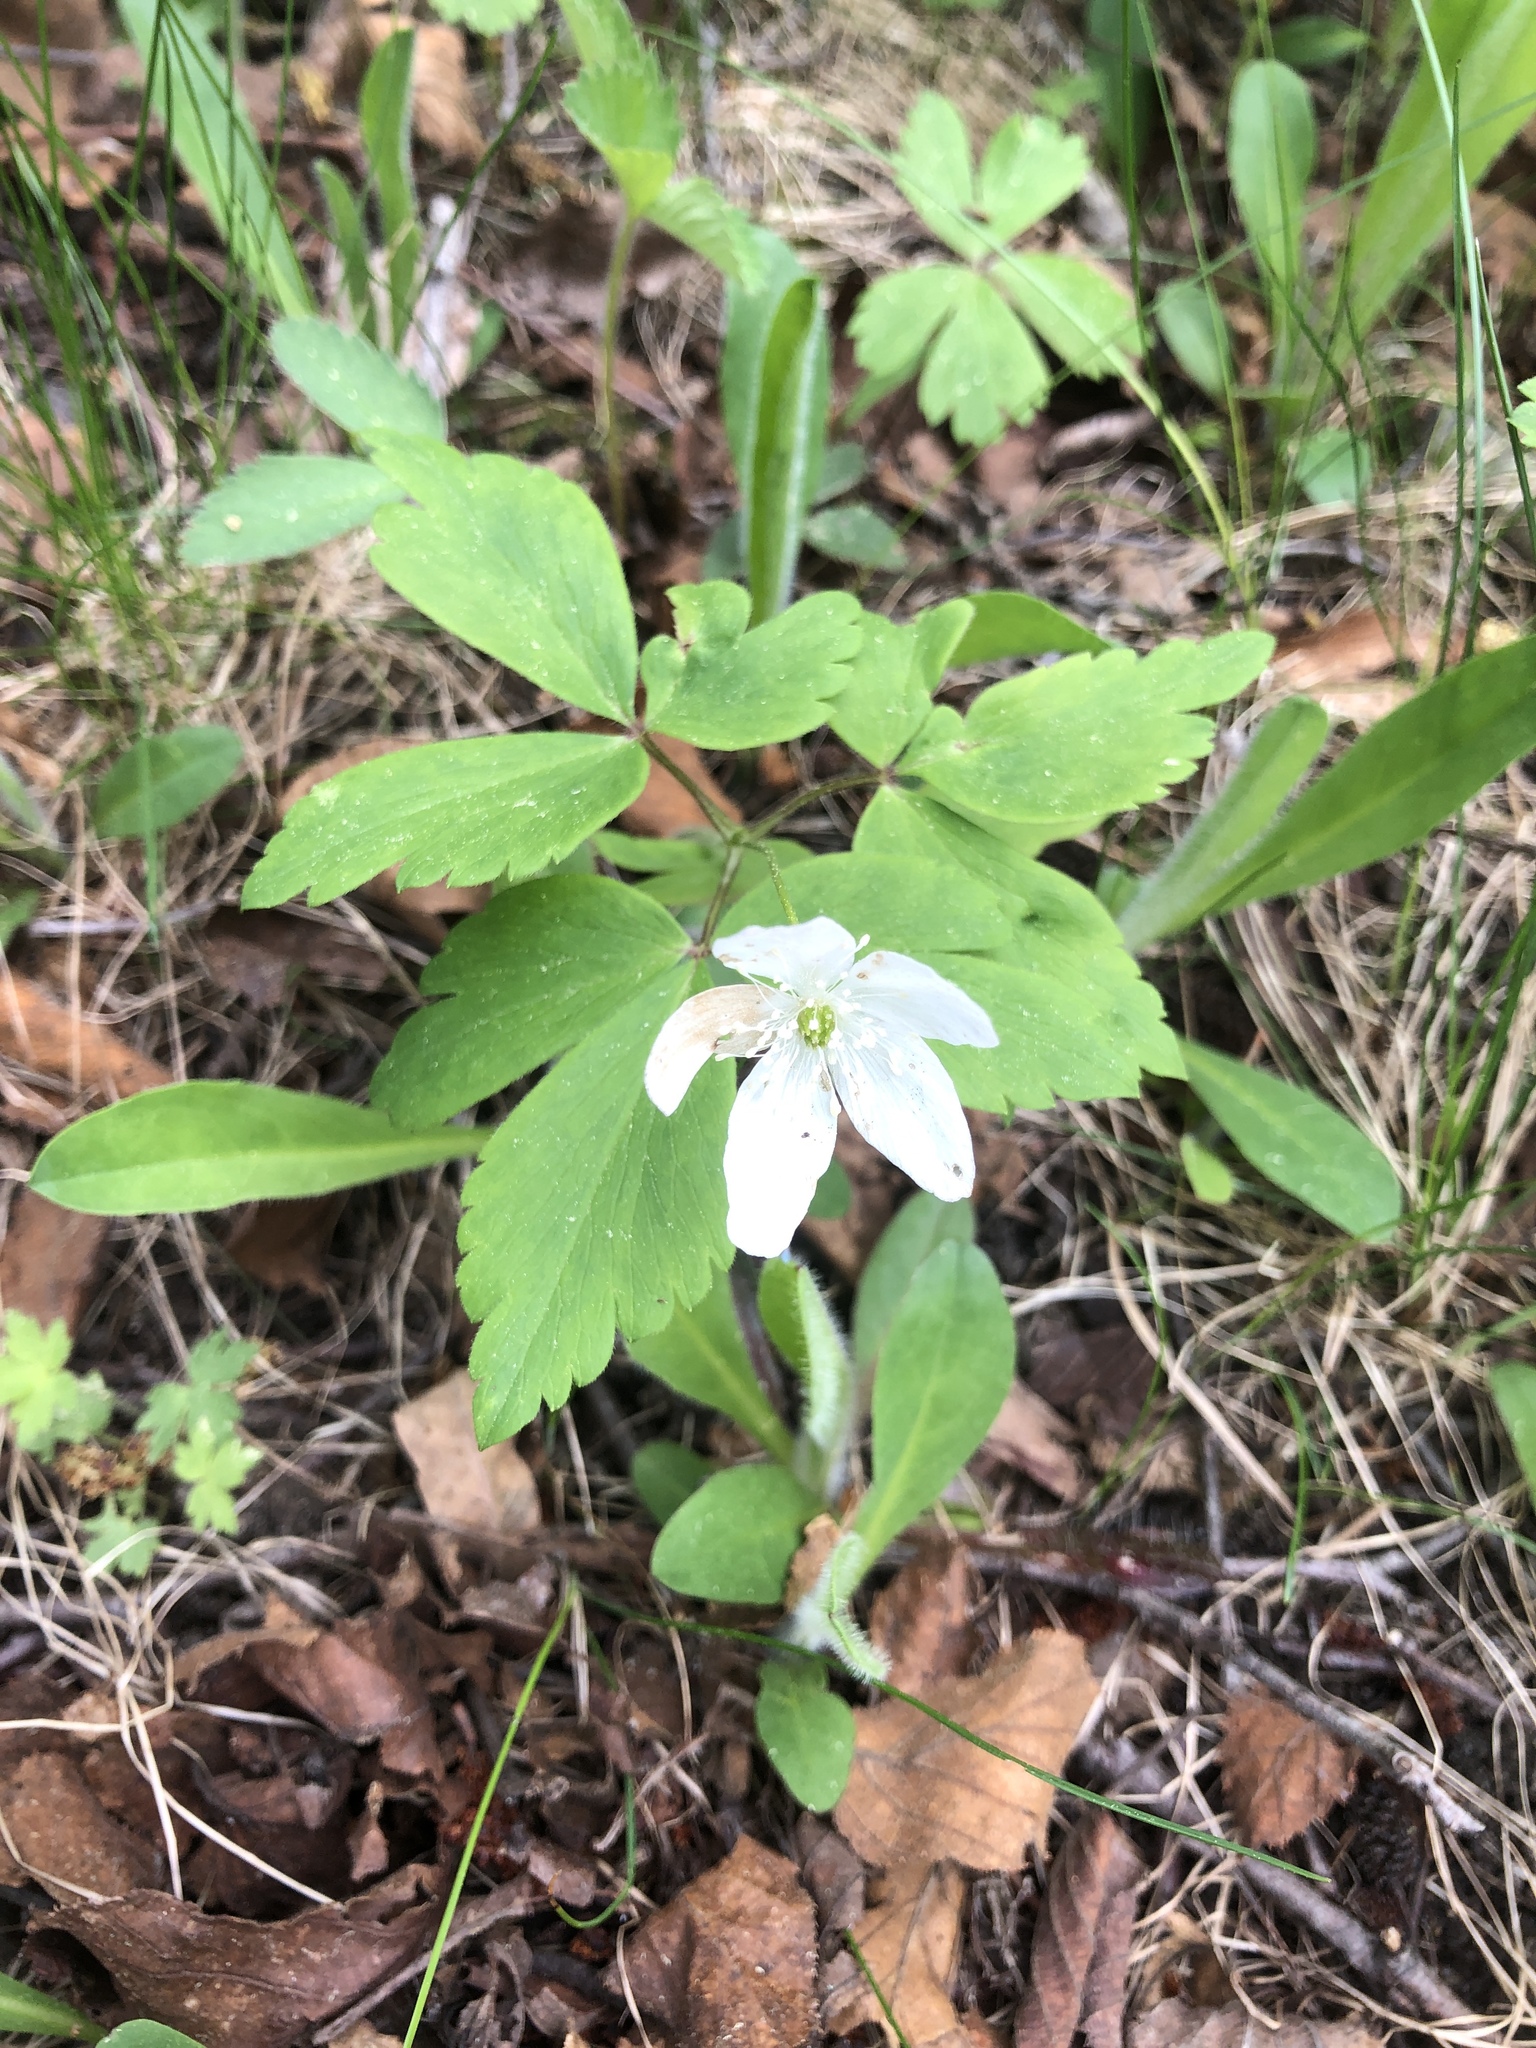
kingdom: Plantae
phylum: Tracheophyta
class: Magnoliopsida
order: Ranunculales
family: Ranunculaceae
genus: Anemone
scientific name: Anemone quinquefolia
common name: Wood anemone
